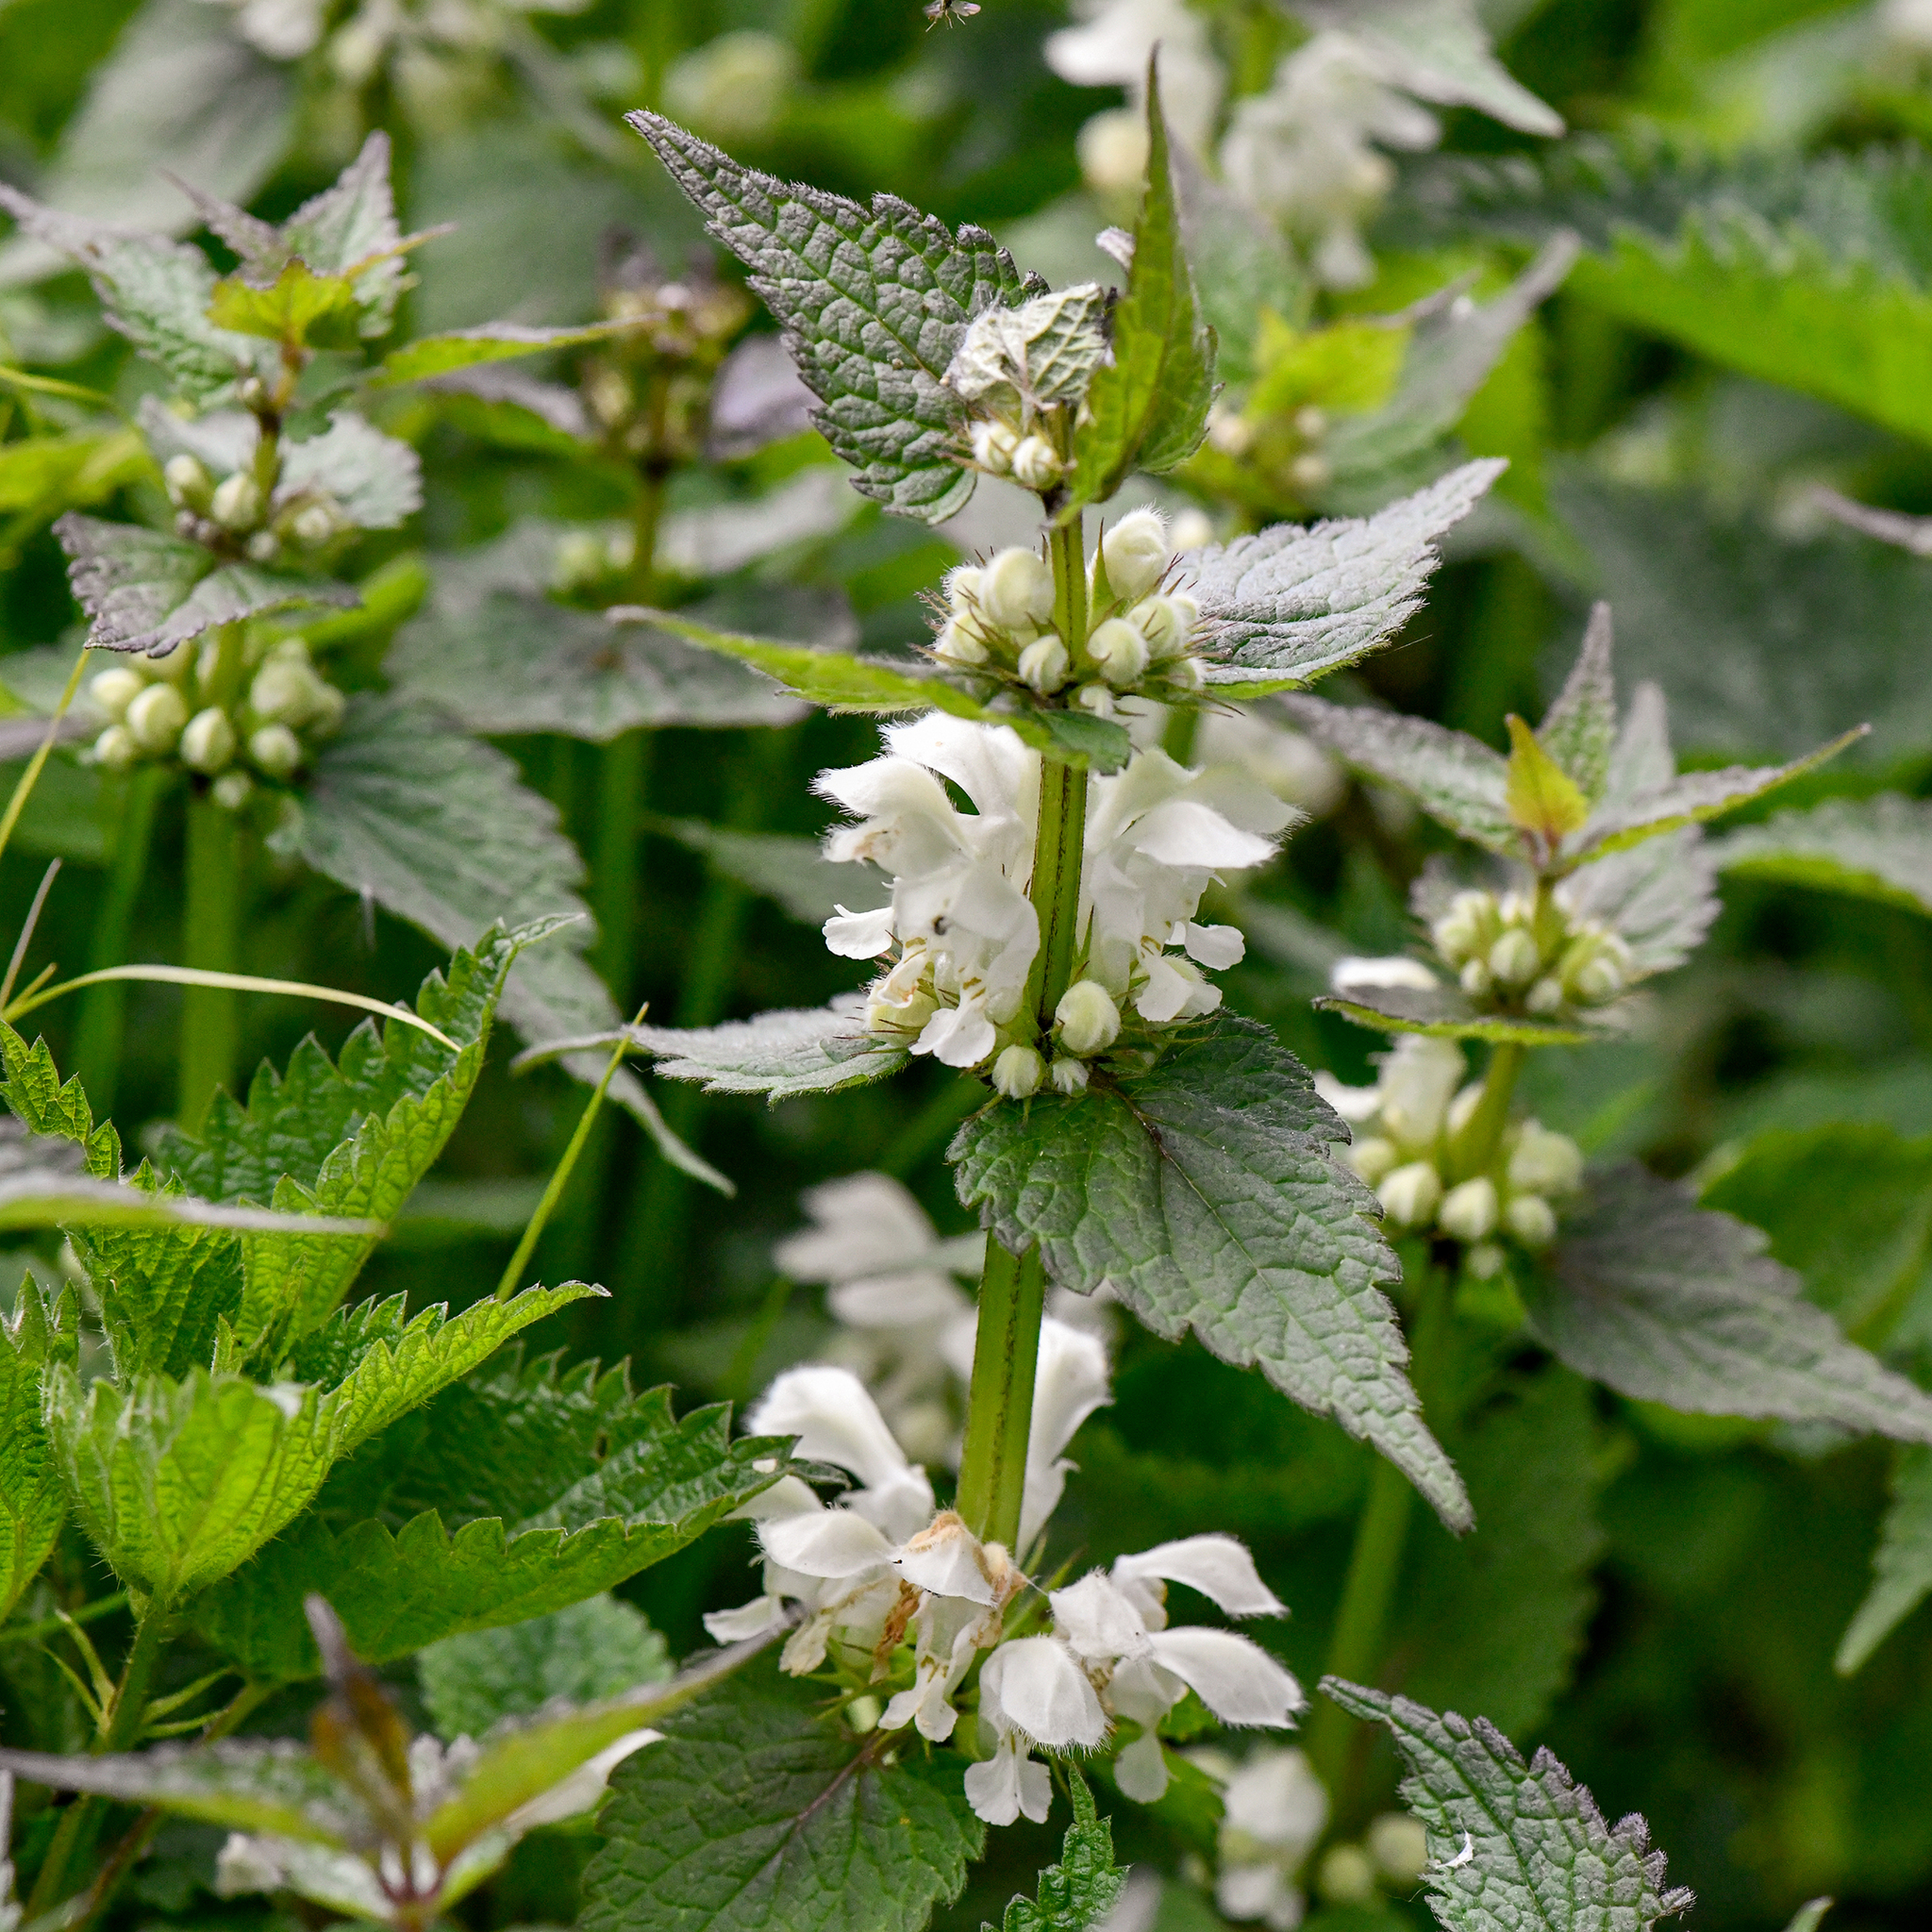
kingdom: Plantae
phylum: Tracheophyta
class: Magnoliopsida
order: Lamiales
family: Lamiaceae
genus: Lamium
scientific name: Lamium album
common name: White dead-nettle
